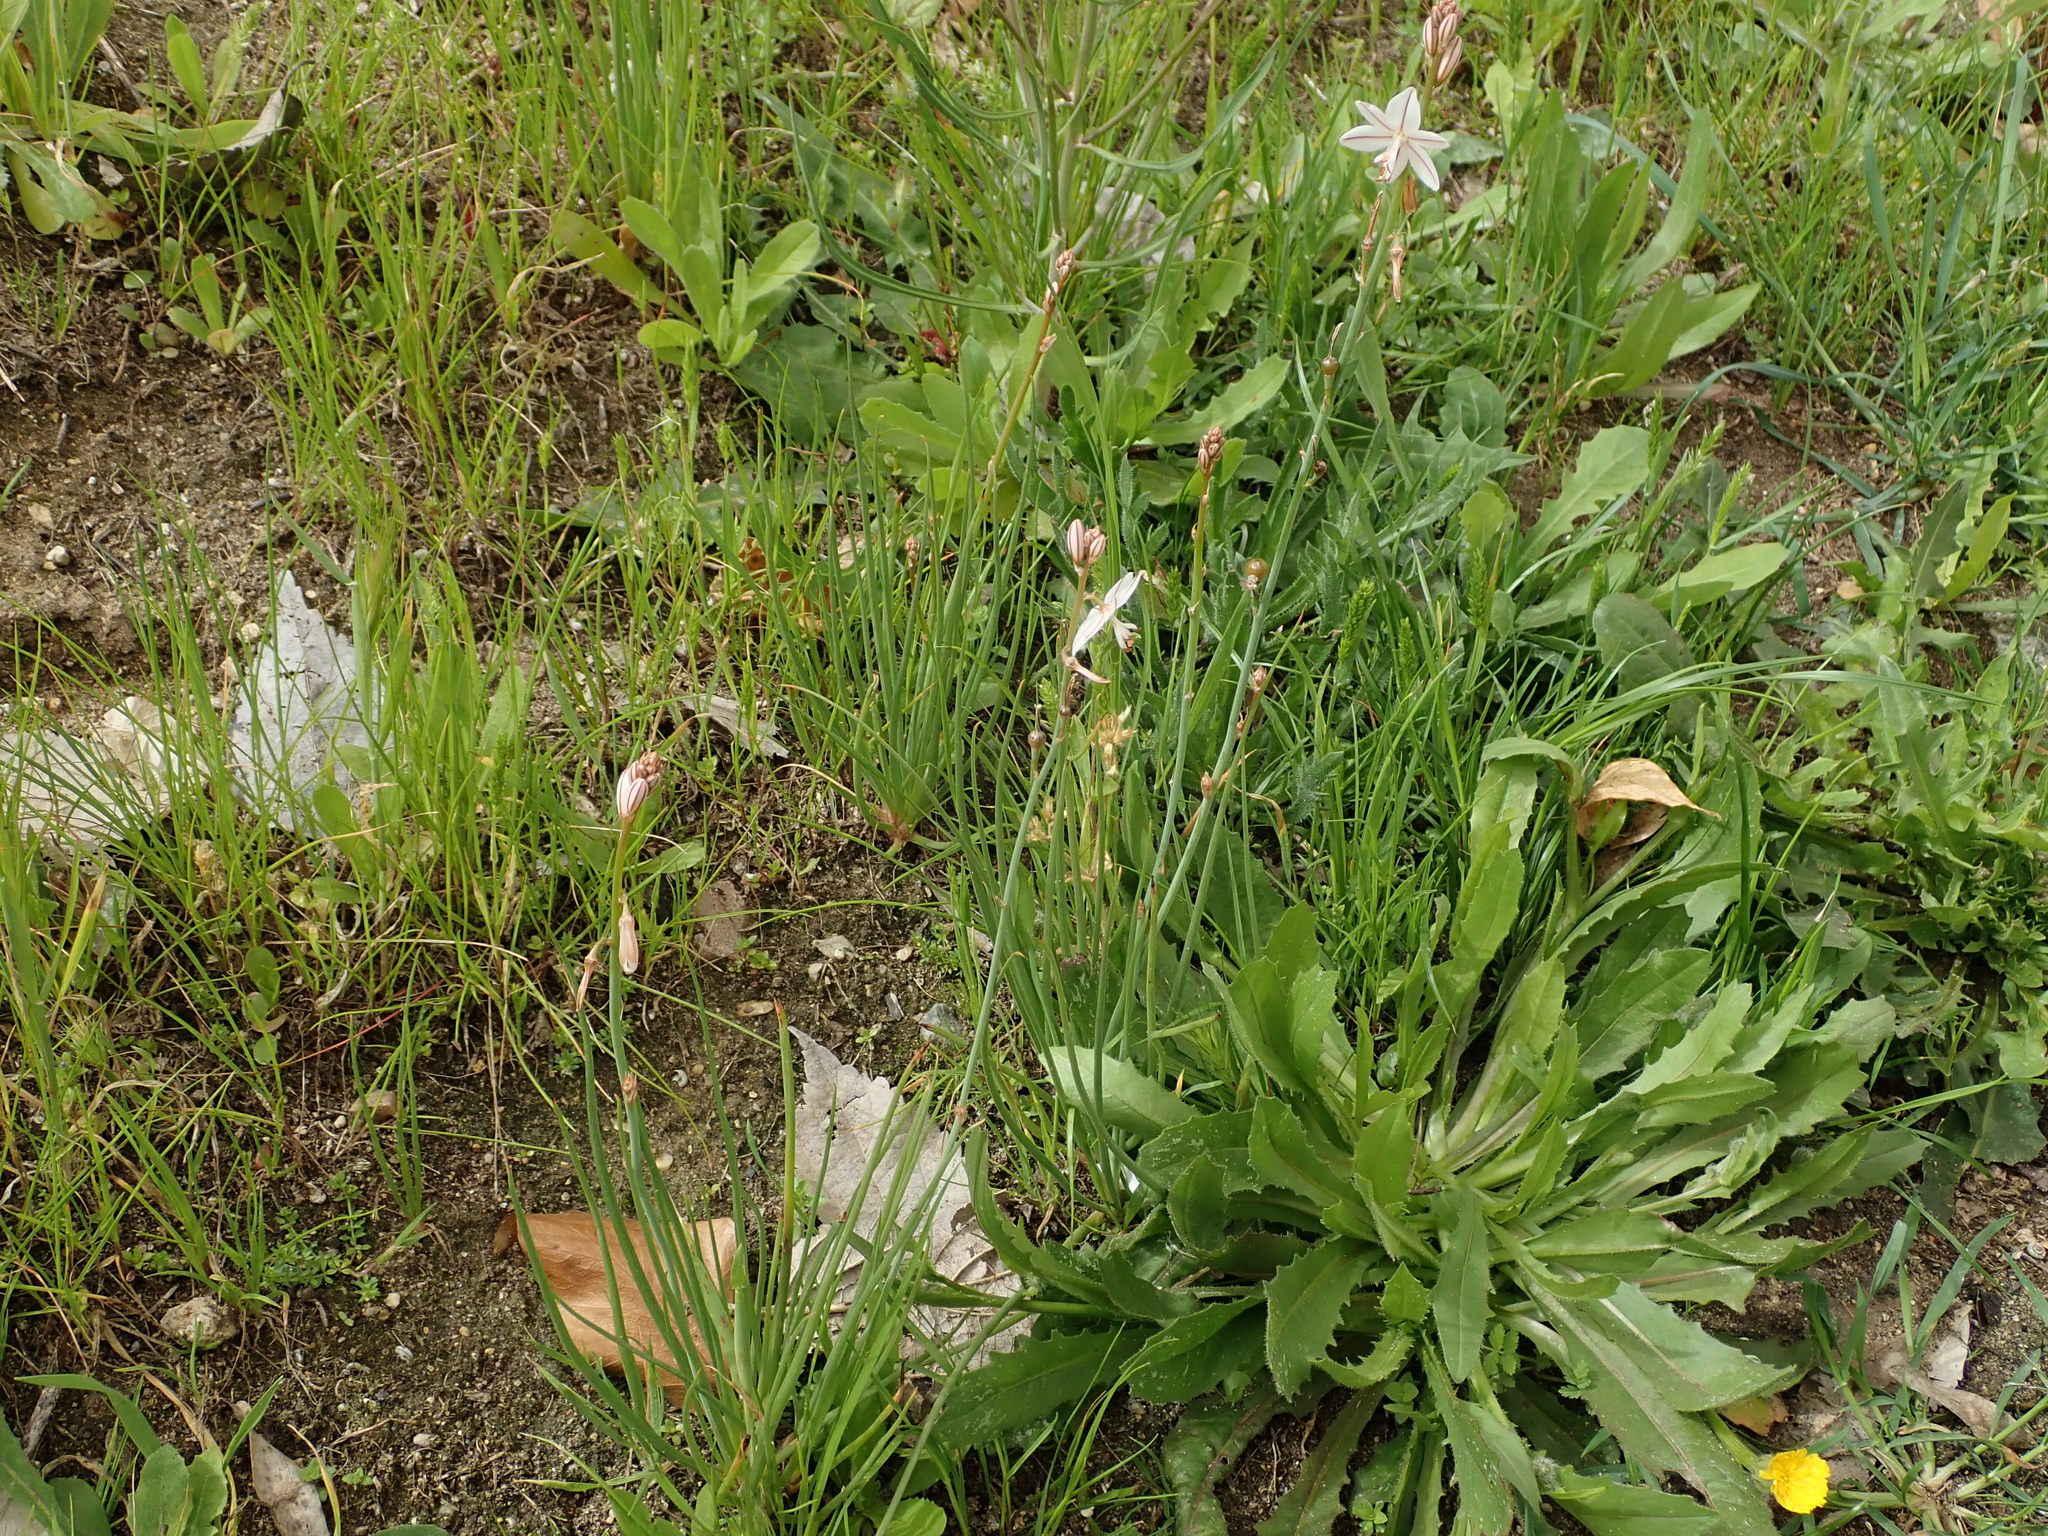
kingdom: Plantae
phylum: Tracheophyta
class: Liliopsida
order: Asparagales
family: Asphodelaceae
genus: Asphodelus
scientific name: Asphodelus fistulosus
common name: Onionweed
